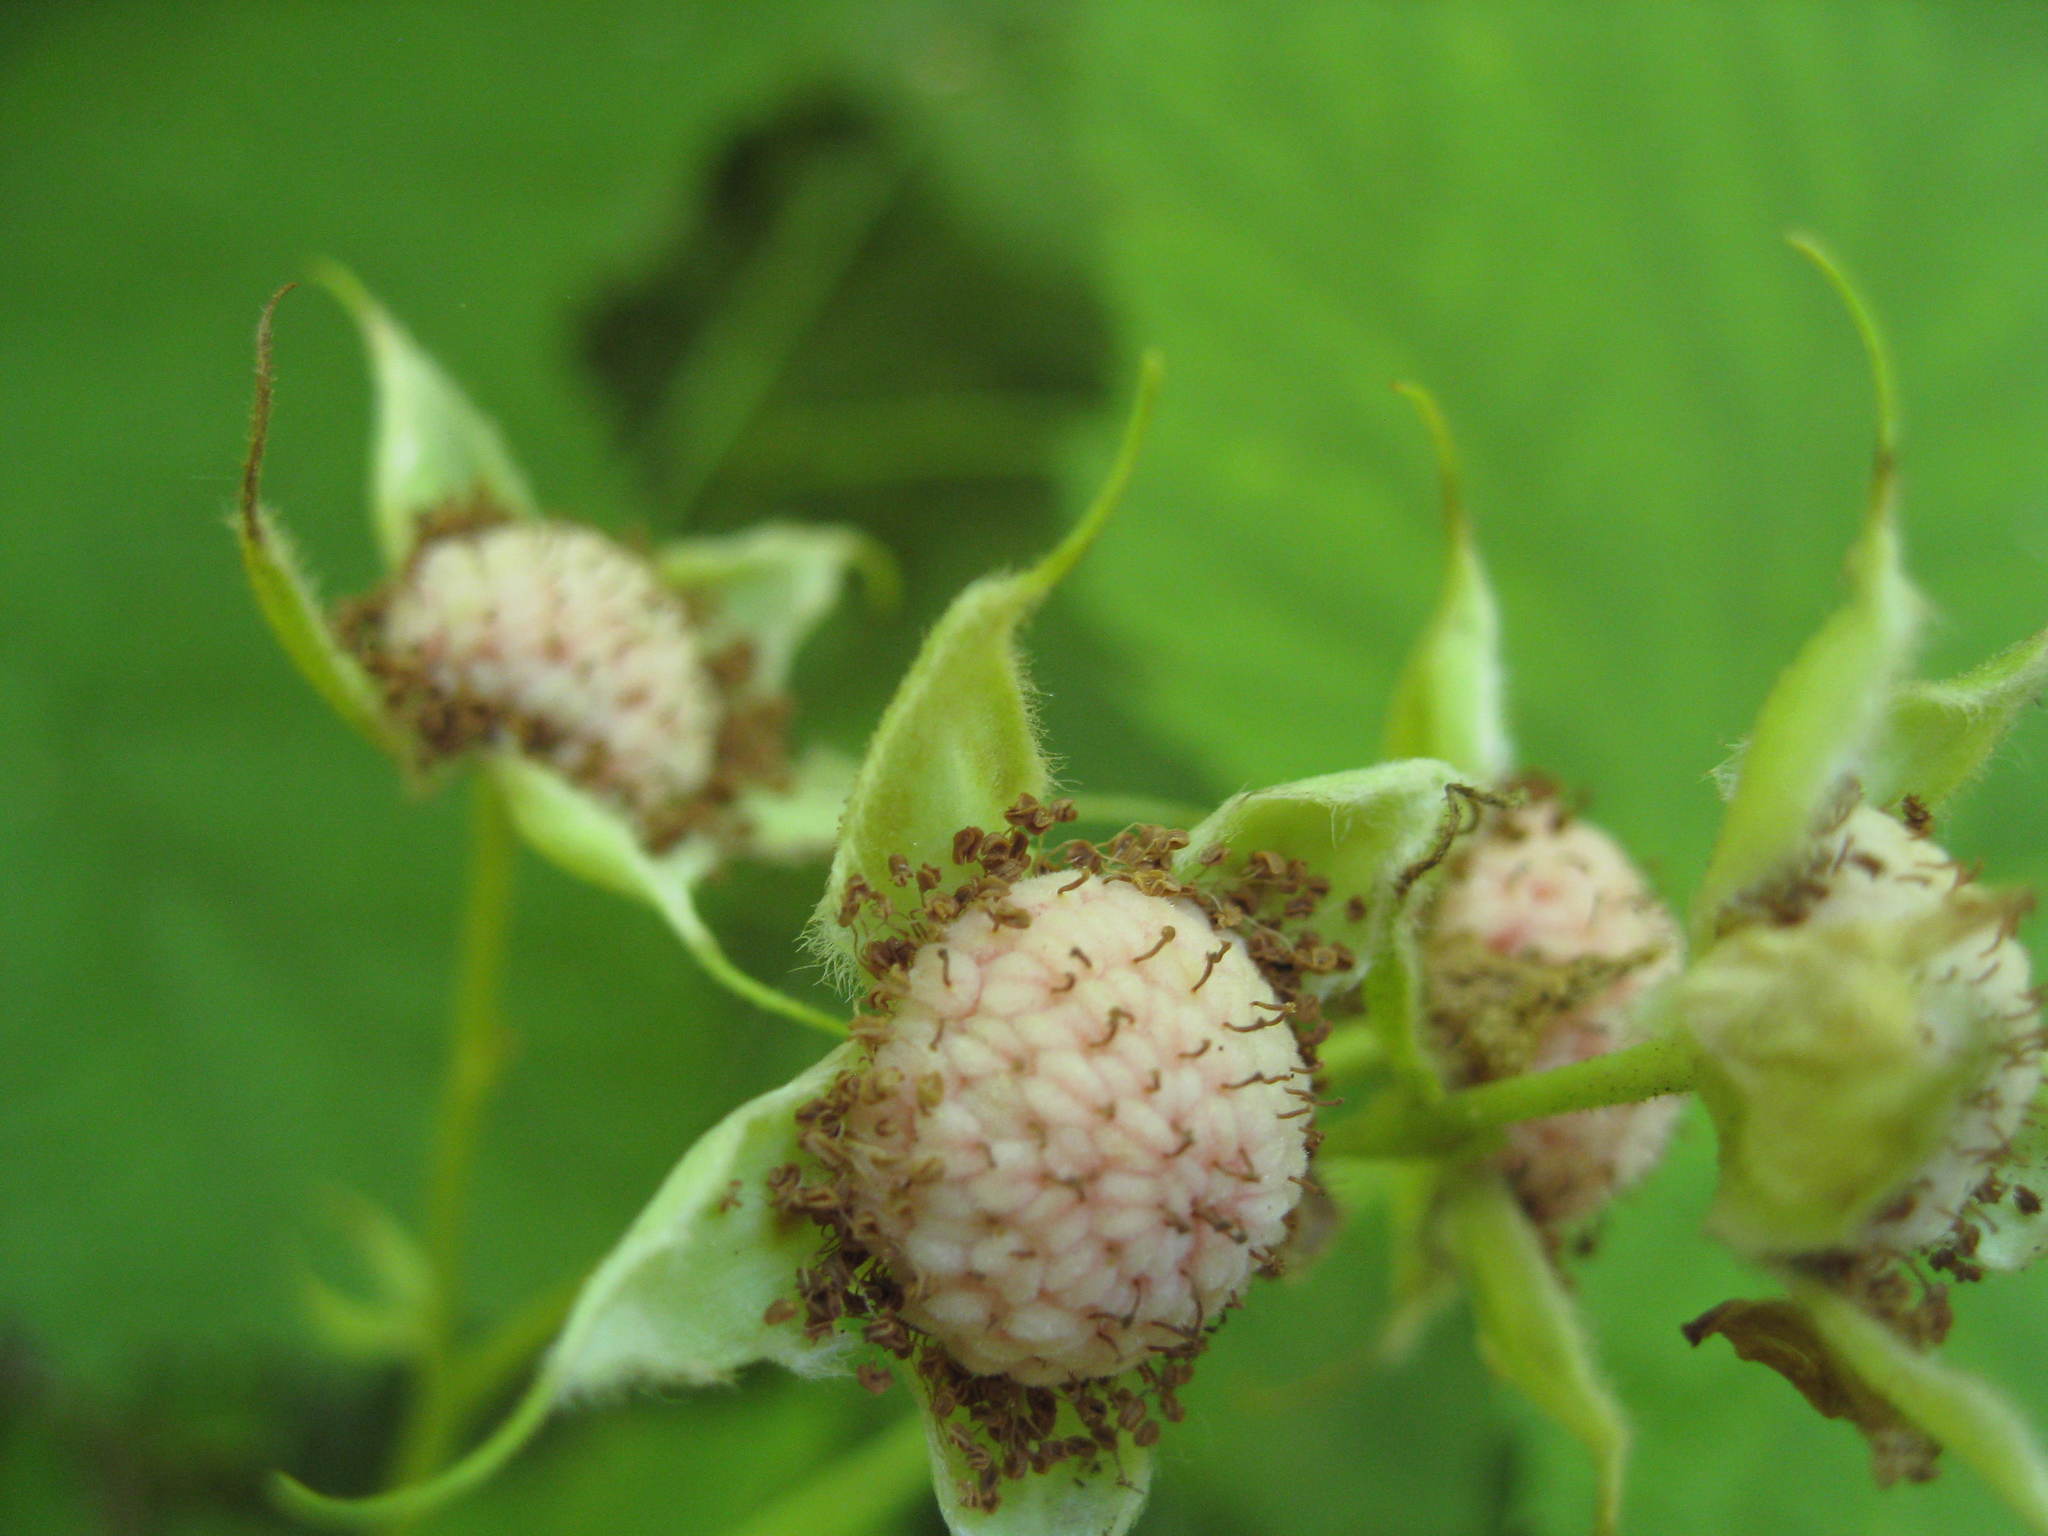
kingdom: Plantae
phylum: Tracheophyta
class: Magnoliopsida
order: Rosales
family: Rosaceae
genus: Rubus
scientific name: Rubus parviflorus
